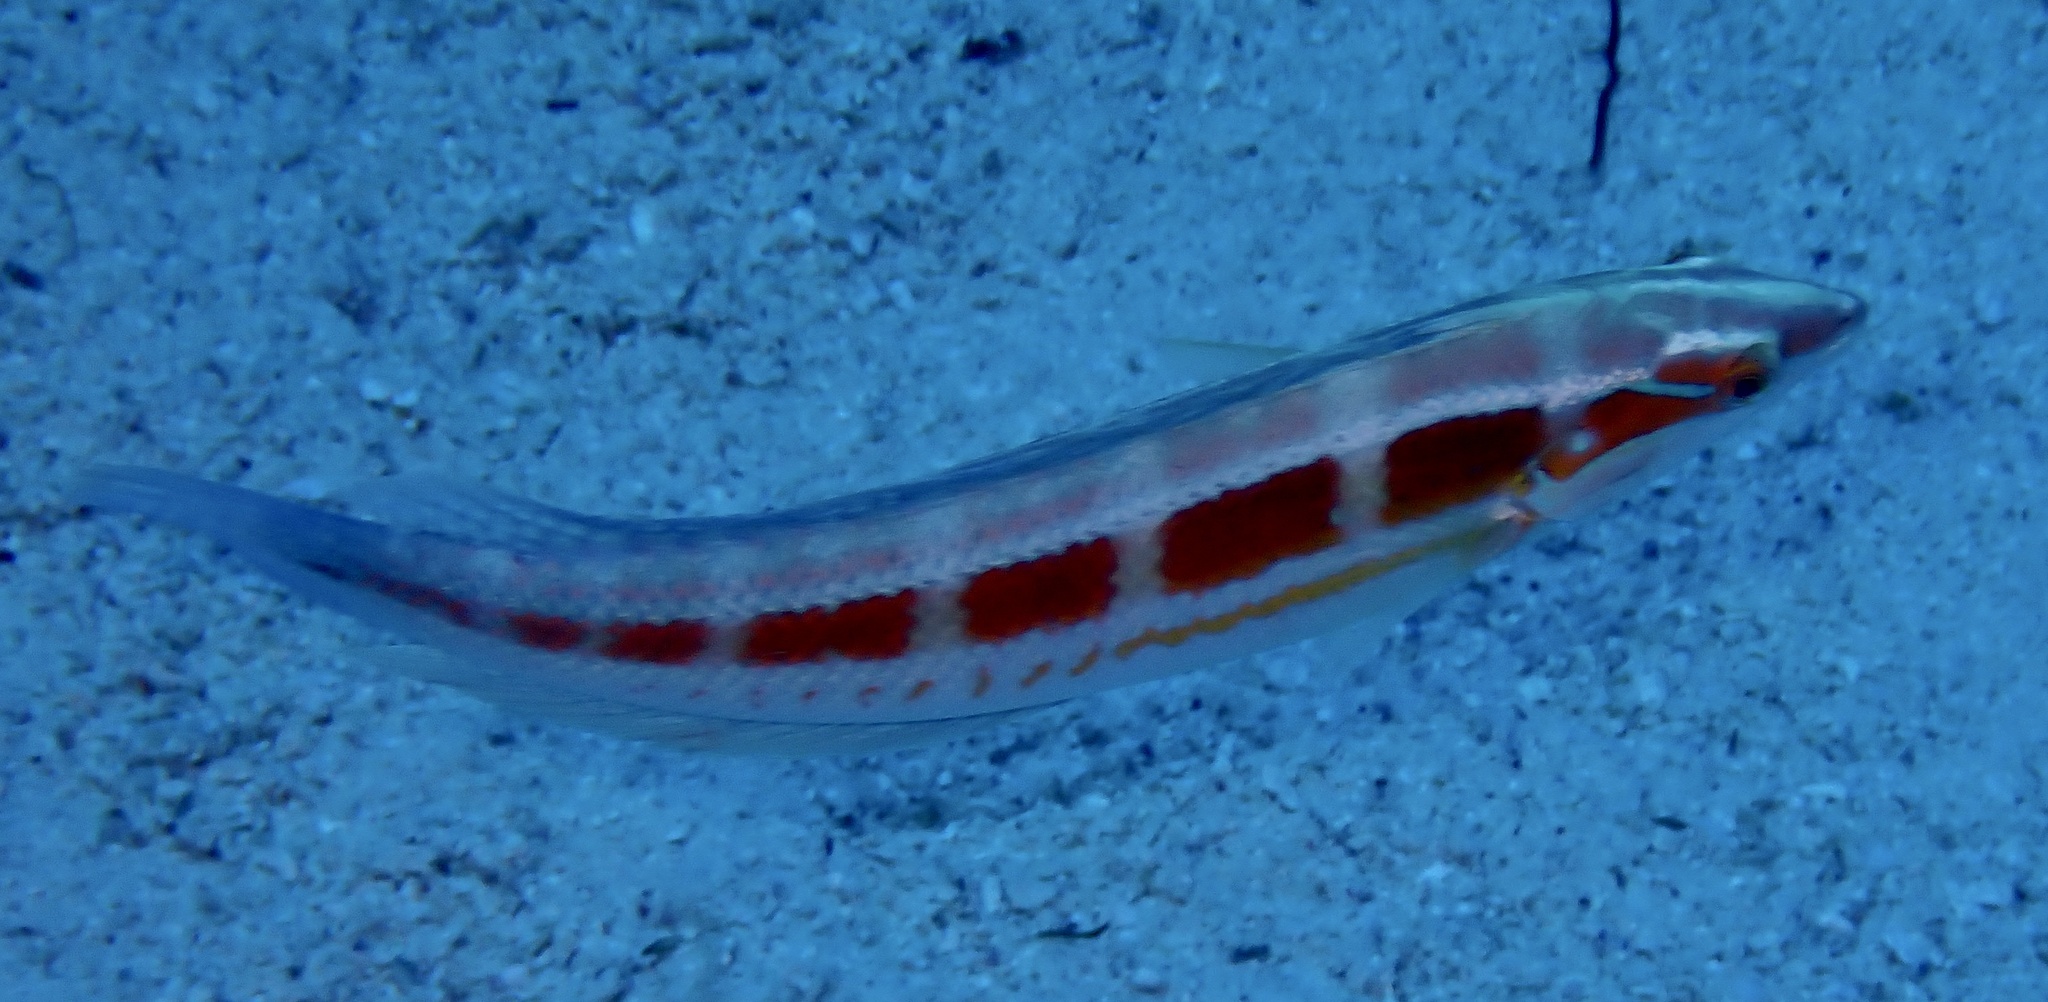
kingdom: Animalia
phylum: Chordata
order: Perciformes
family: Labridae
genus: Coris
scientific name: Coris caudimacula
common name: Spottail coris
